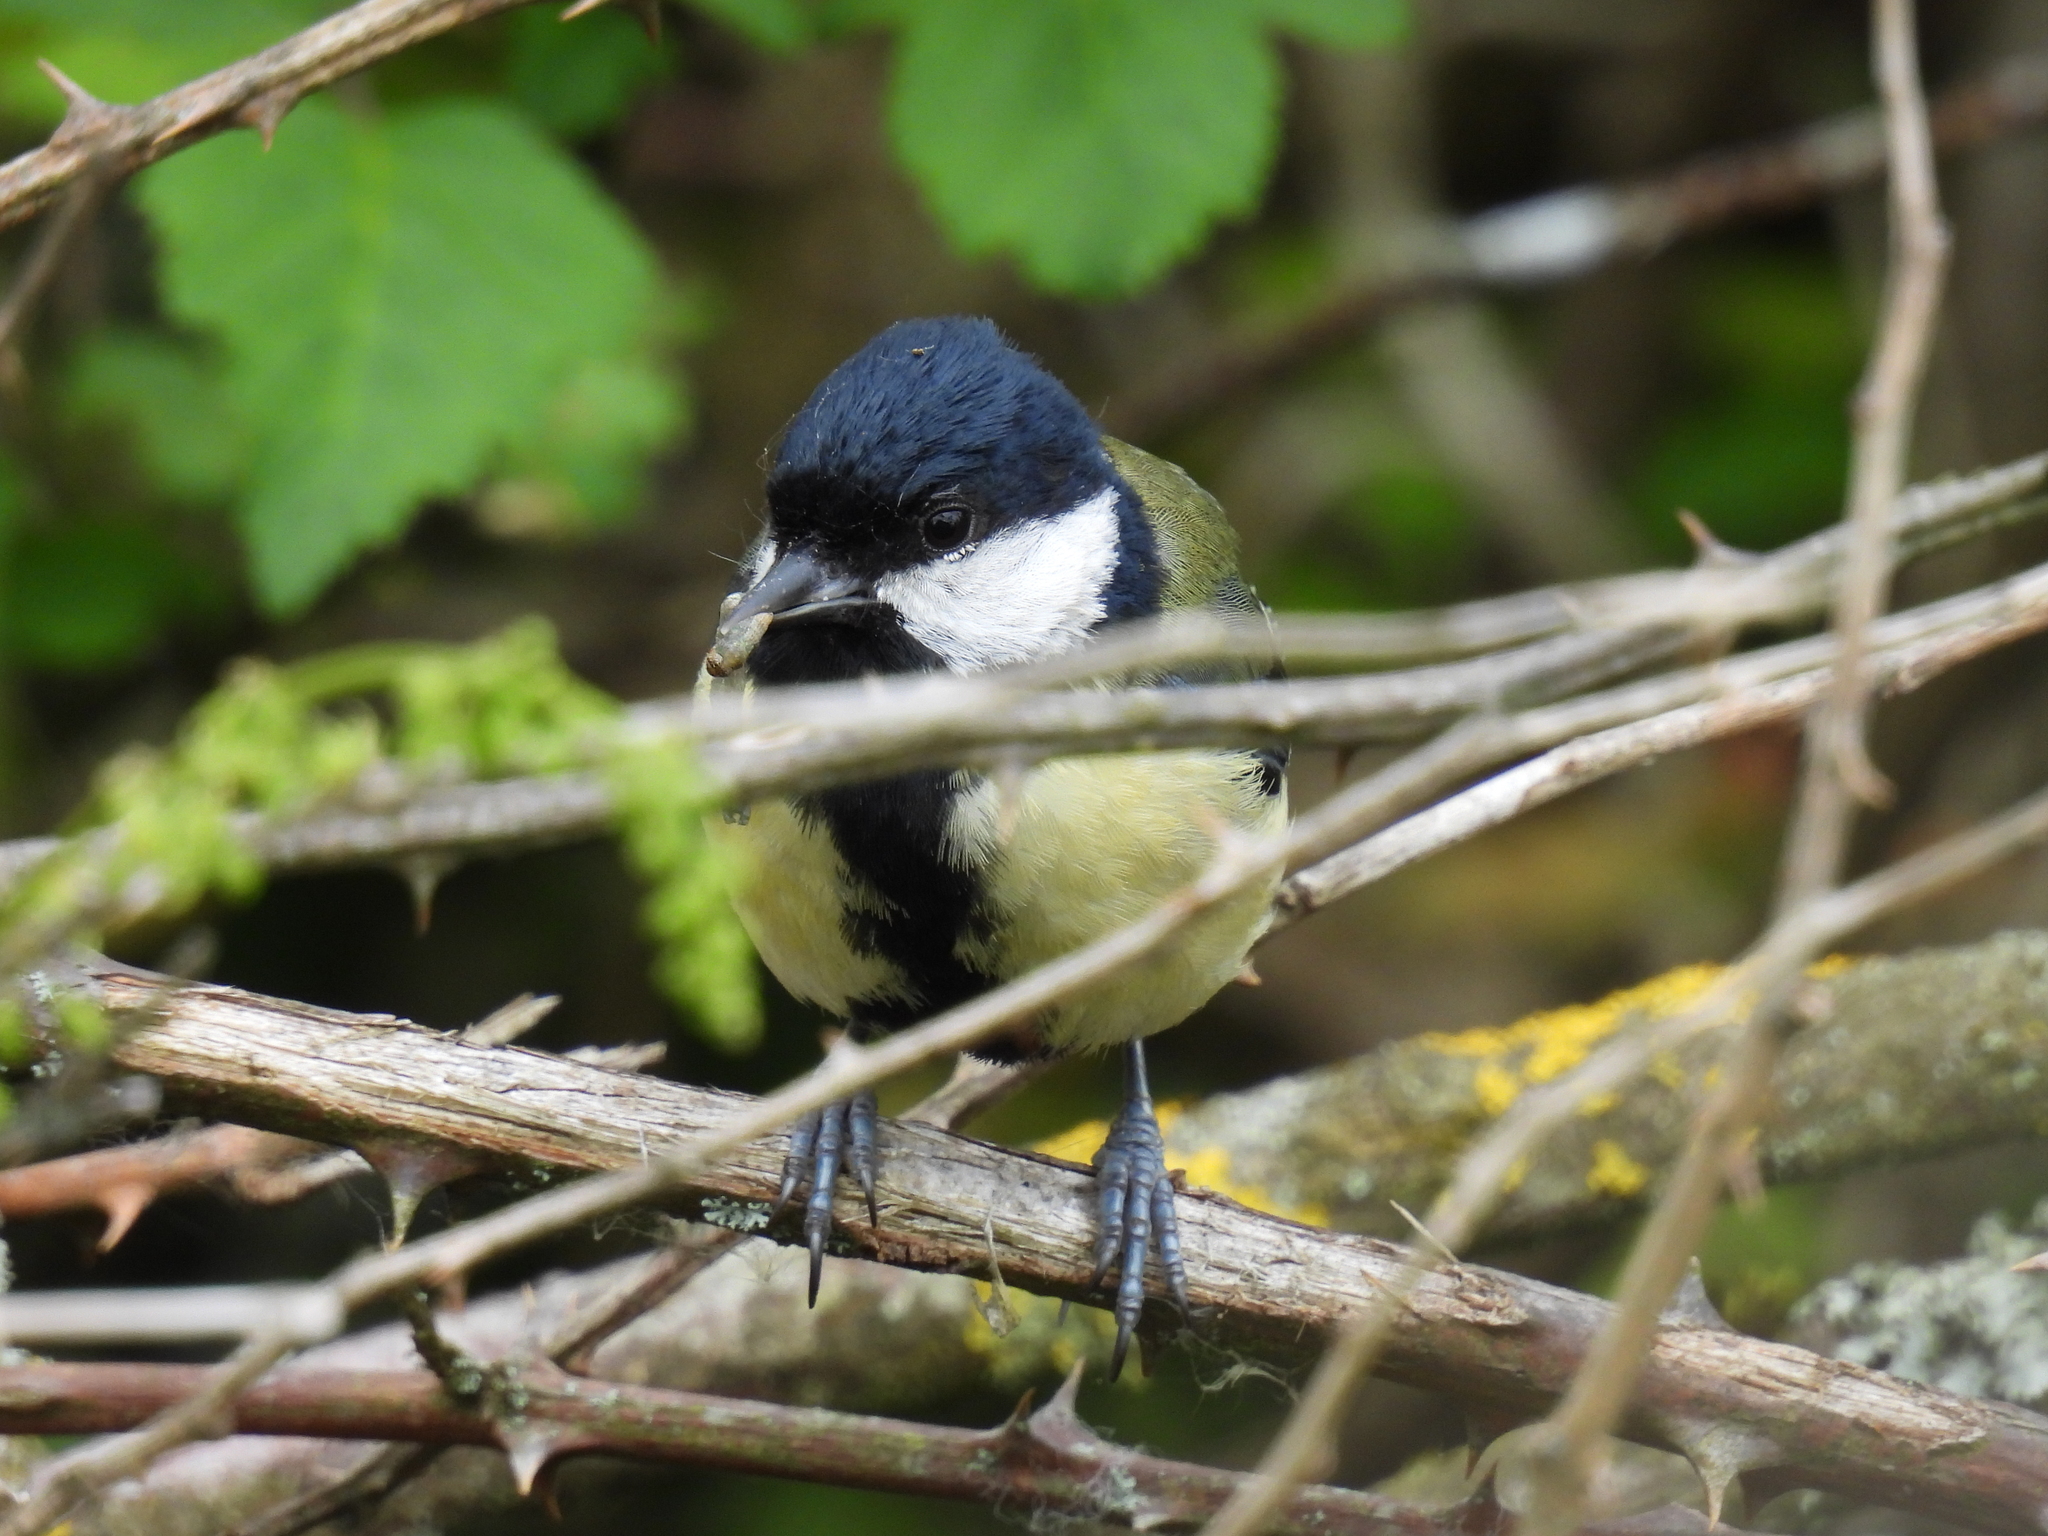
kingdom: Animalia
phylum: Chordata
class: Aves
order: Passeriformes
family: Paridae
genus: Parus
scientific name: Parus major
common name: Great tit
